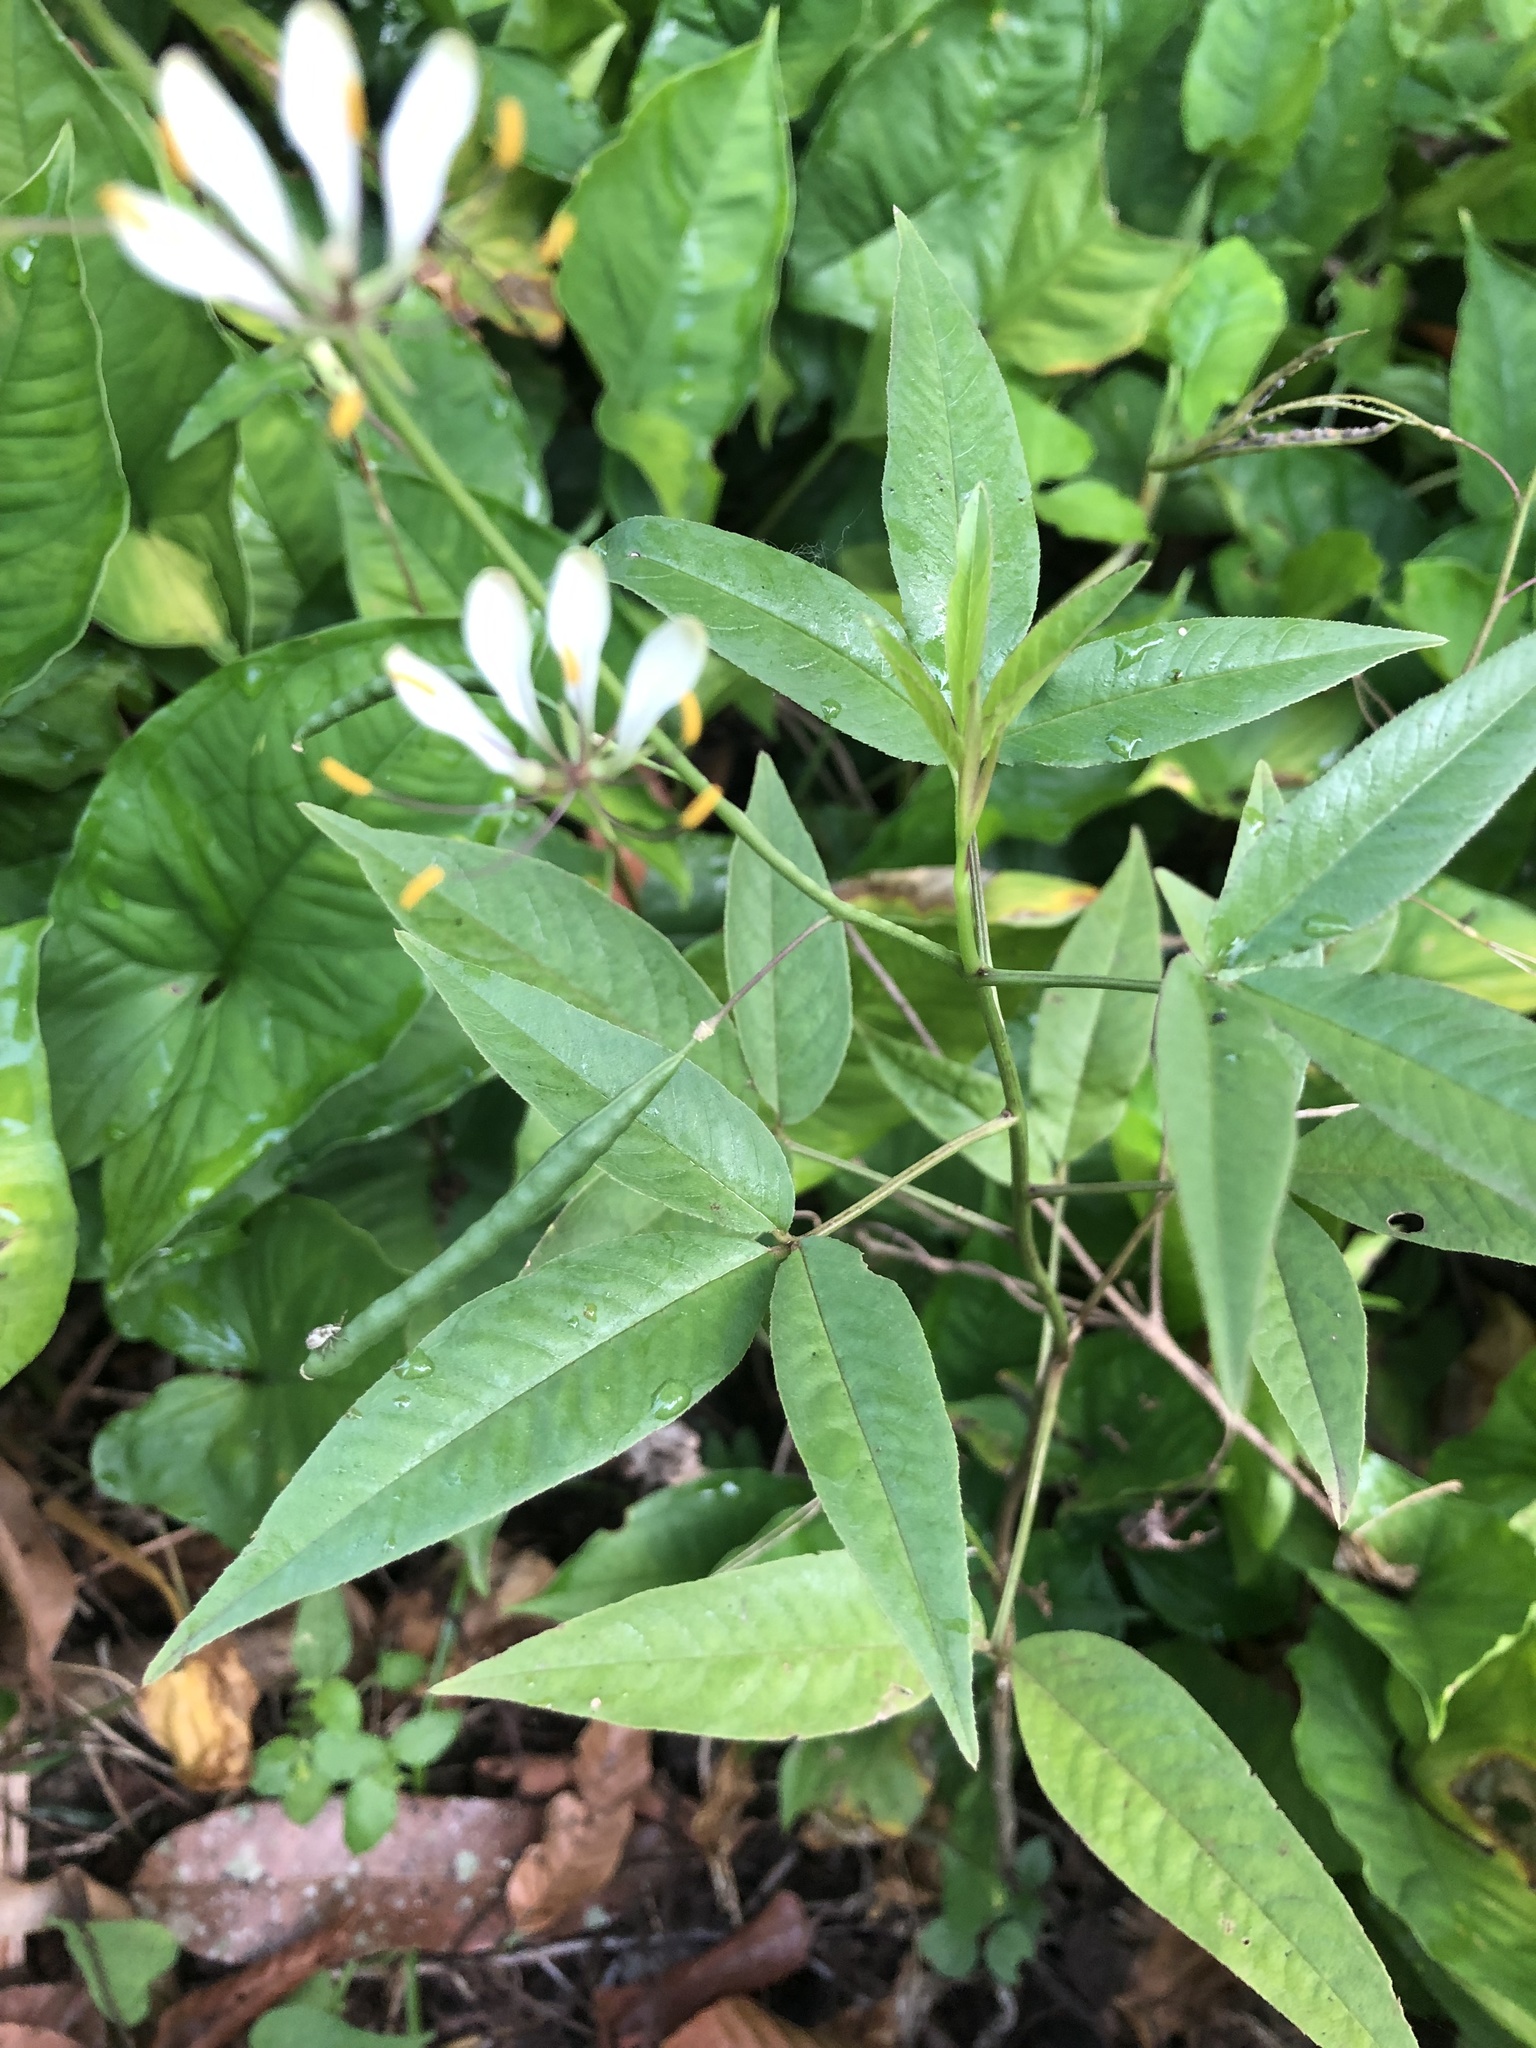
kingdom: Plantae
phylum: Tracheophyta
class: Magnoliopsida
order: Brassicales
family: Cleomaceae
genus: Cleoserrata
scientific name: Cleoserrata serrata
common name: Toothed spiderflower
